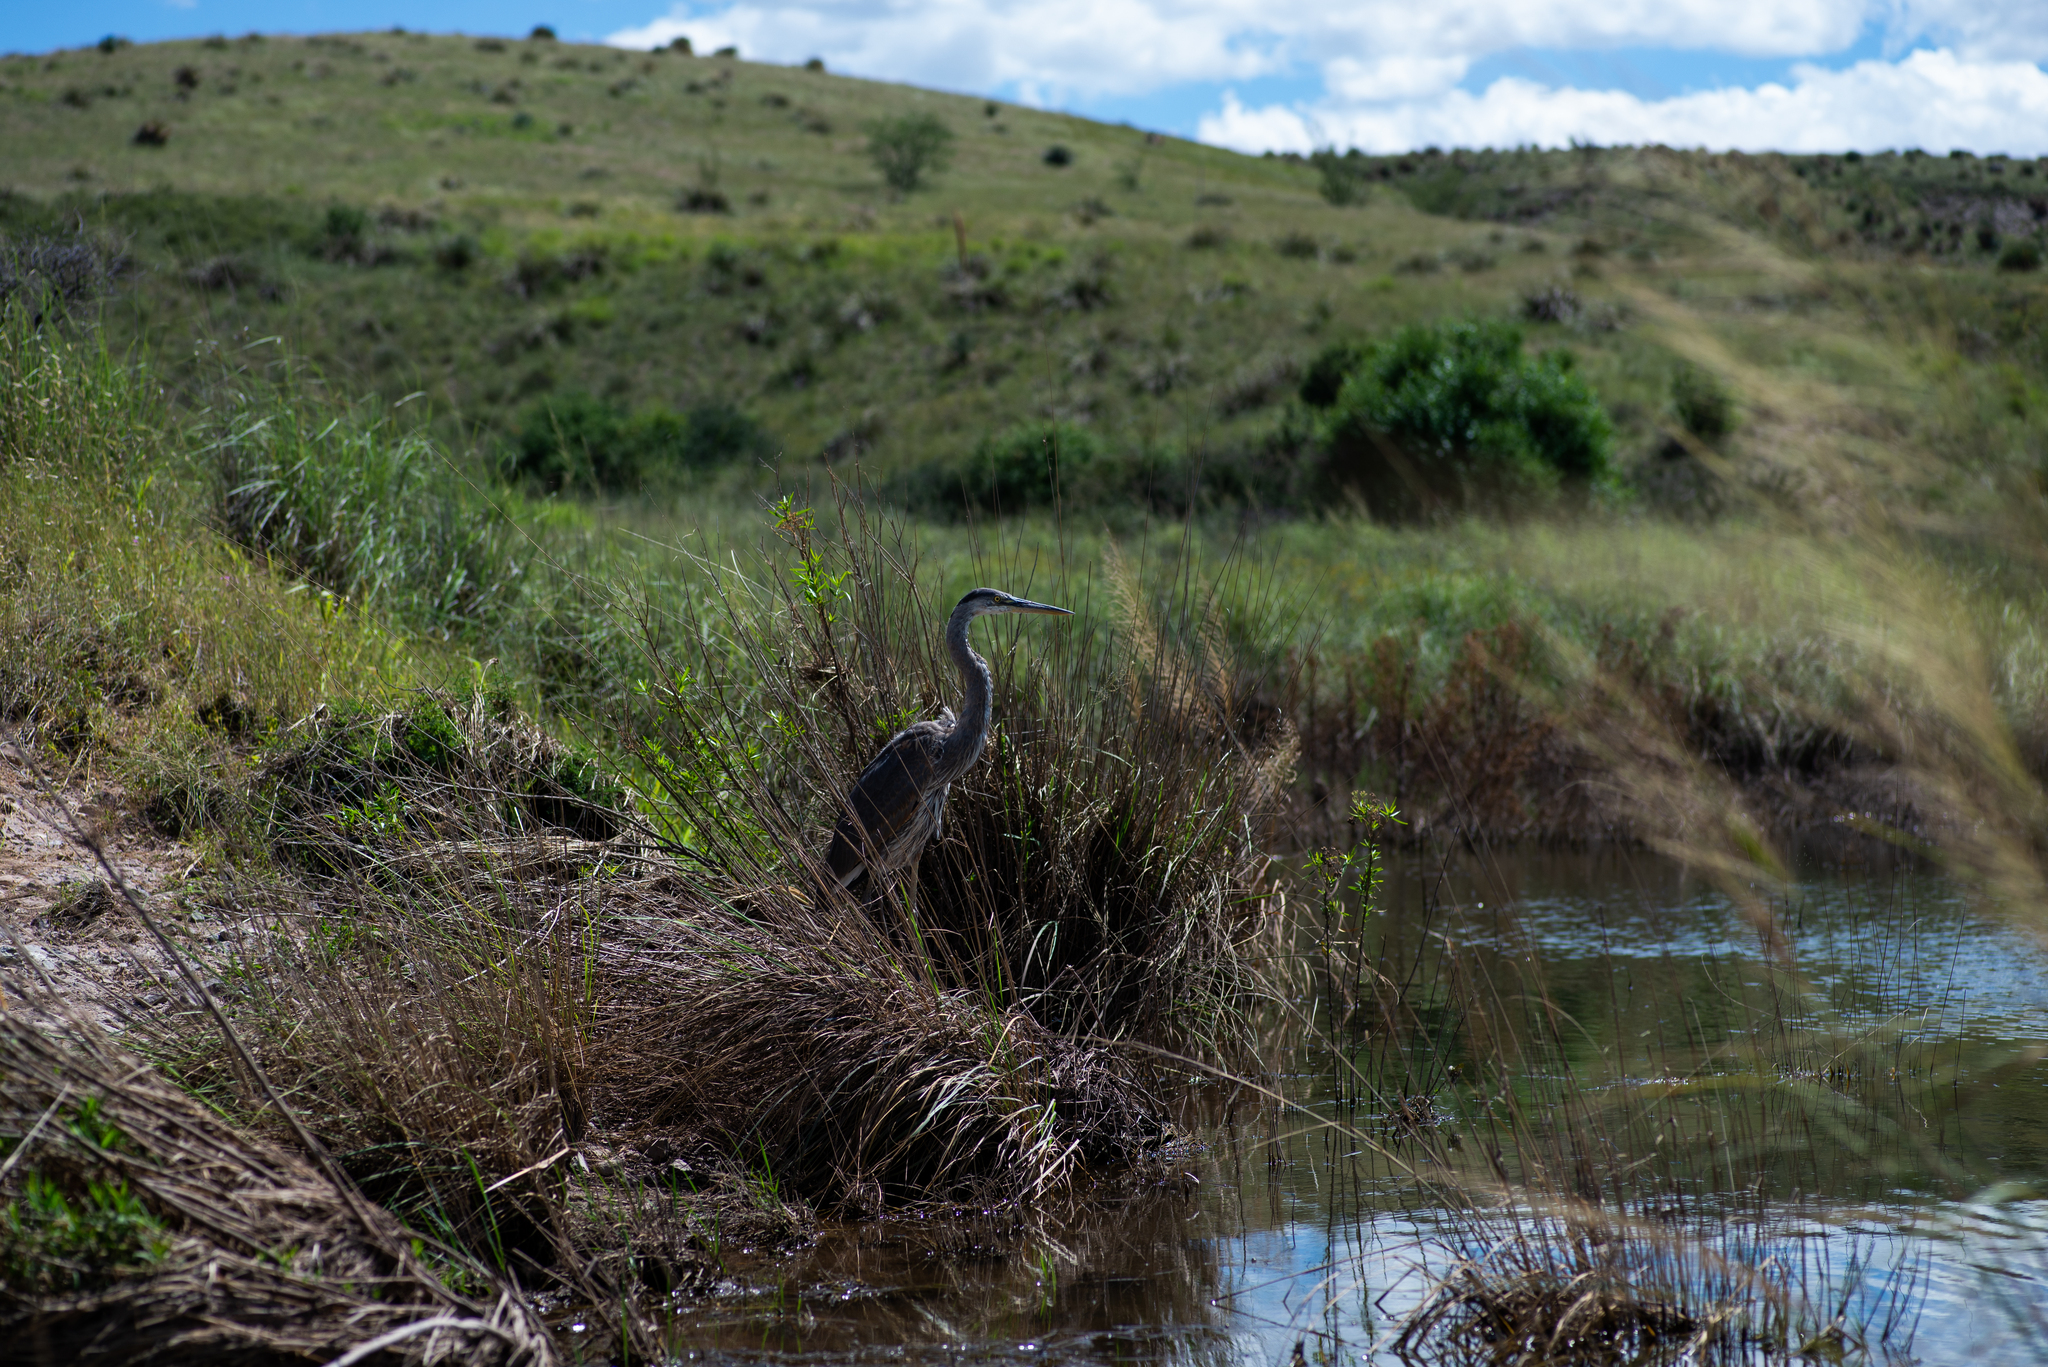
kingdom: Animalia
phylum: Chordata
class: Aves
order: Pelecaniformes
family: Ardeidae
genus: Ardea
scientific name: Ardea herodias
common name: Great blue heron
